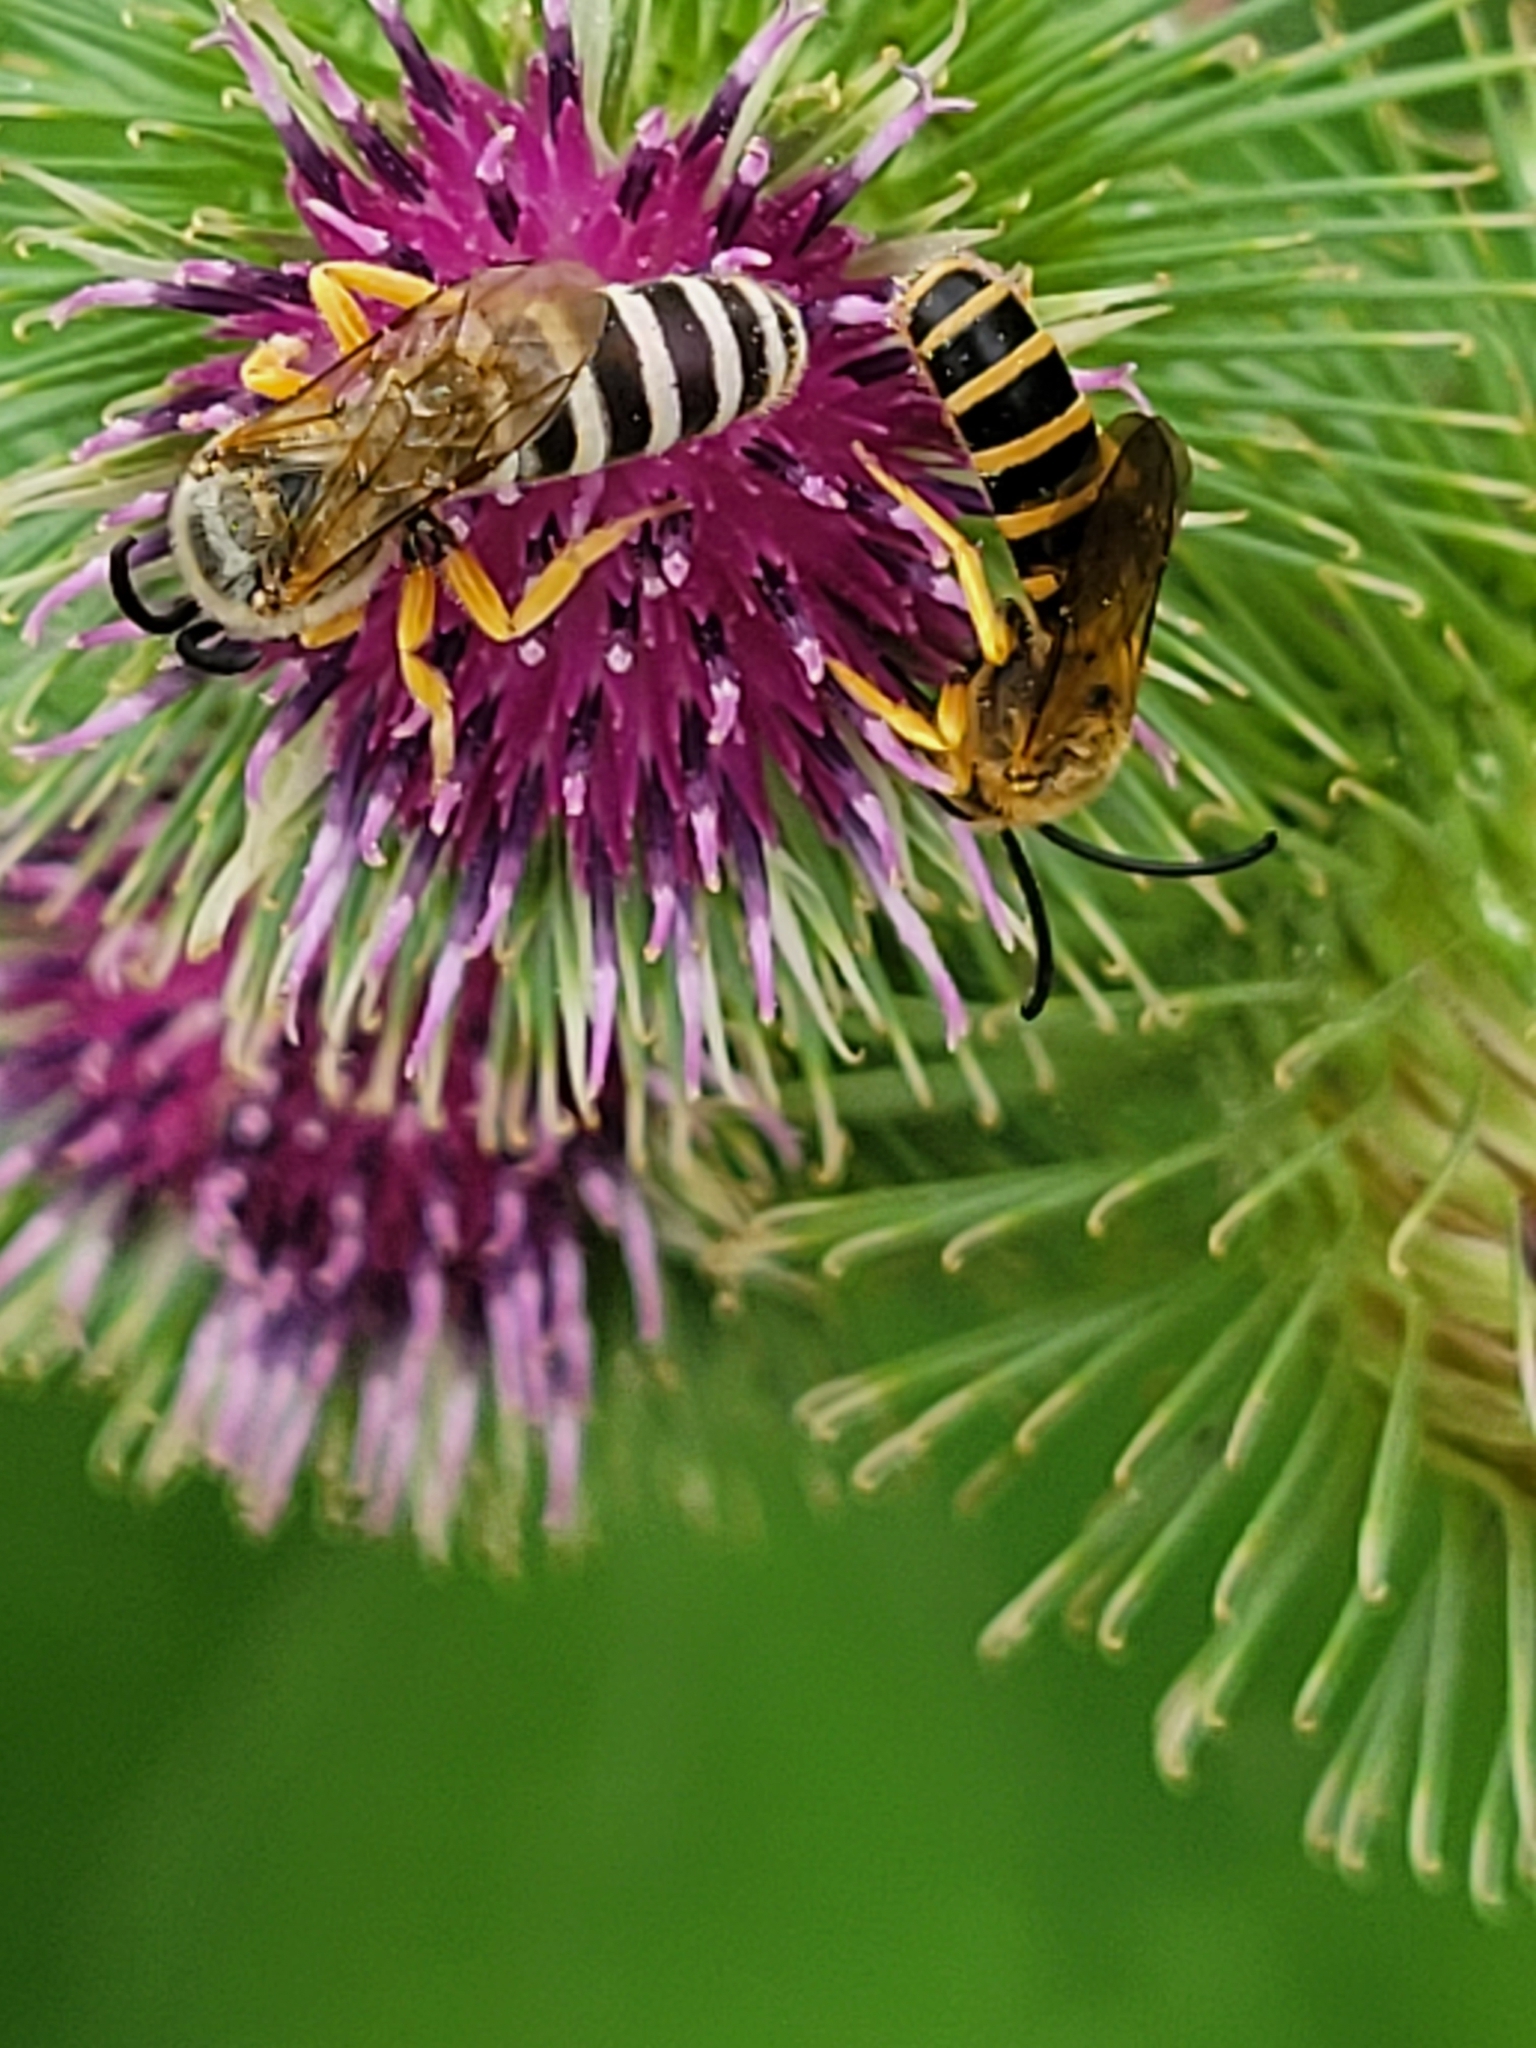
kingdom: Animalia
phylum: Arthropoda
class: Insecta
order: Hymenoptera
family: Halictidae
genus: Halictus
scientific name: Halictus scabiosae
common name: Great banded furrow bee
